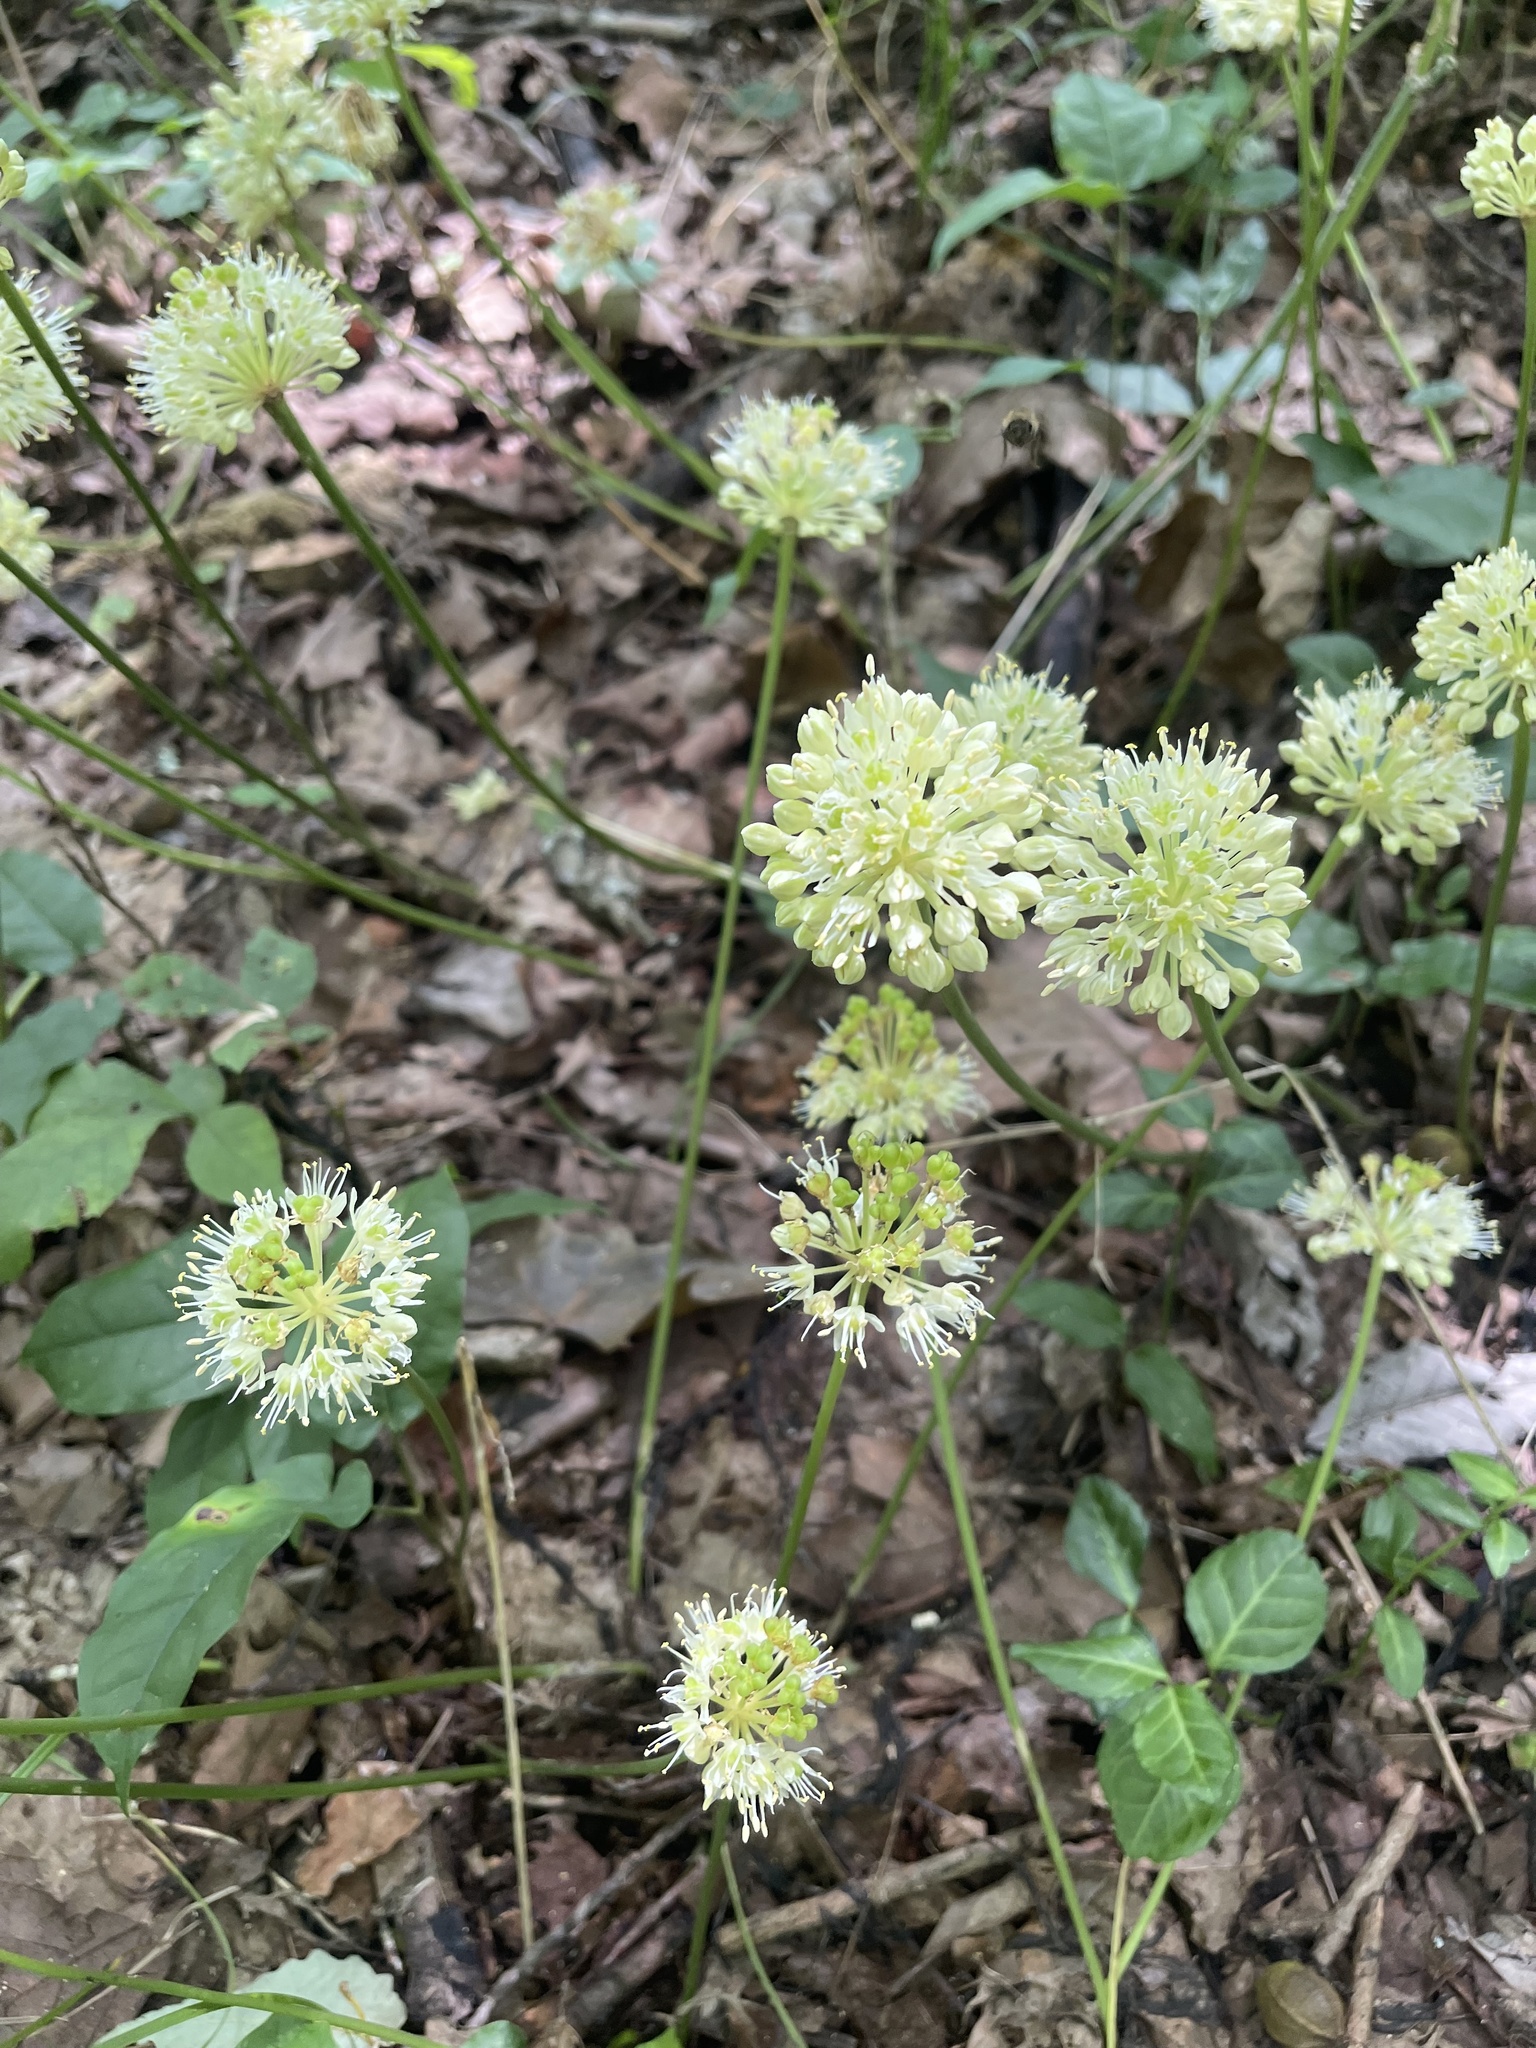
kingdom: Plantae
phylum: Tracheophyta
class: Liliopsida
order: Asparagales
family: Amaryllidaceae
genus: Allium
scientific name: Allium tricoccum
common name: Ramp
